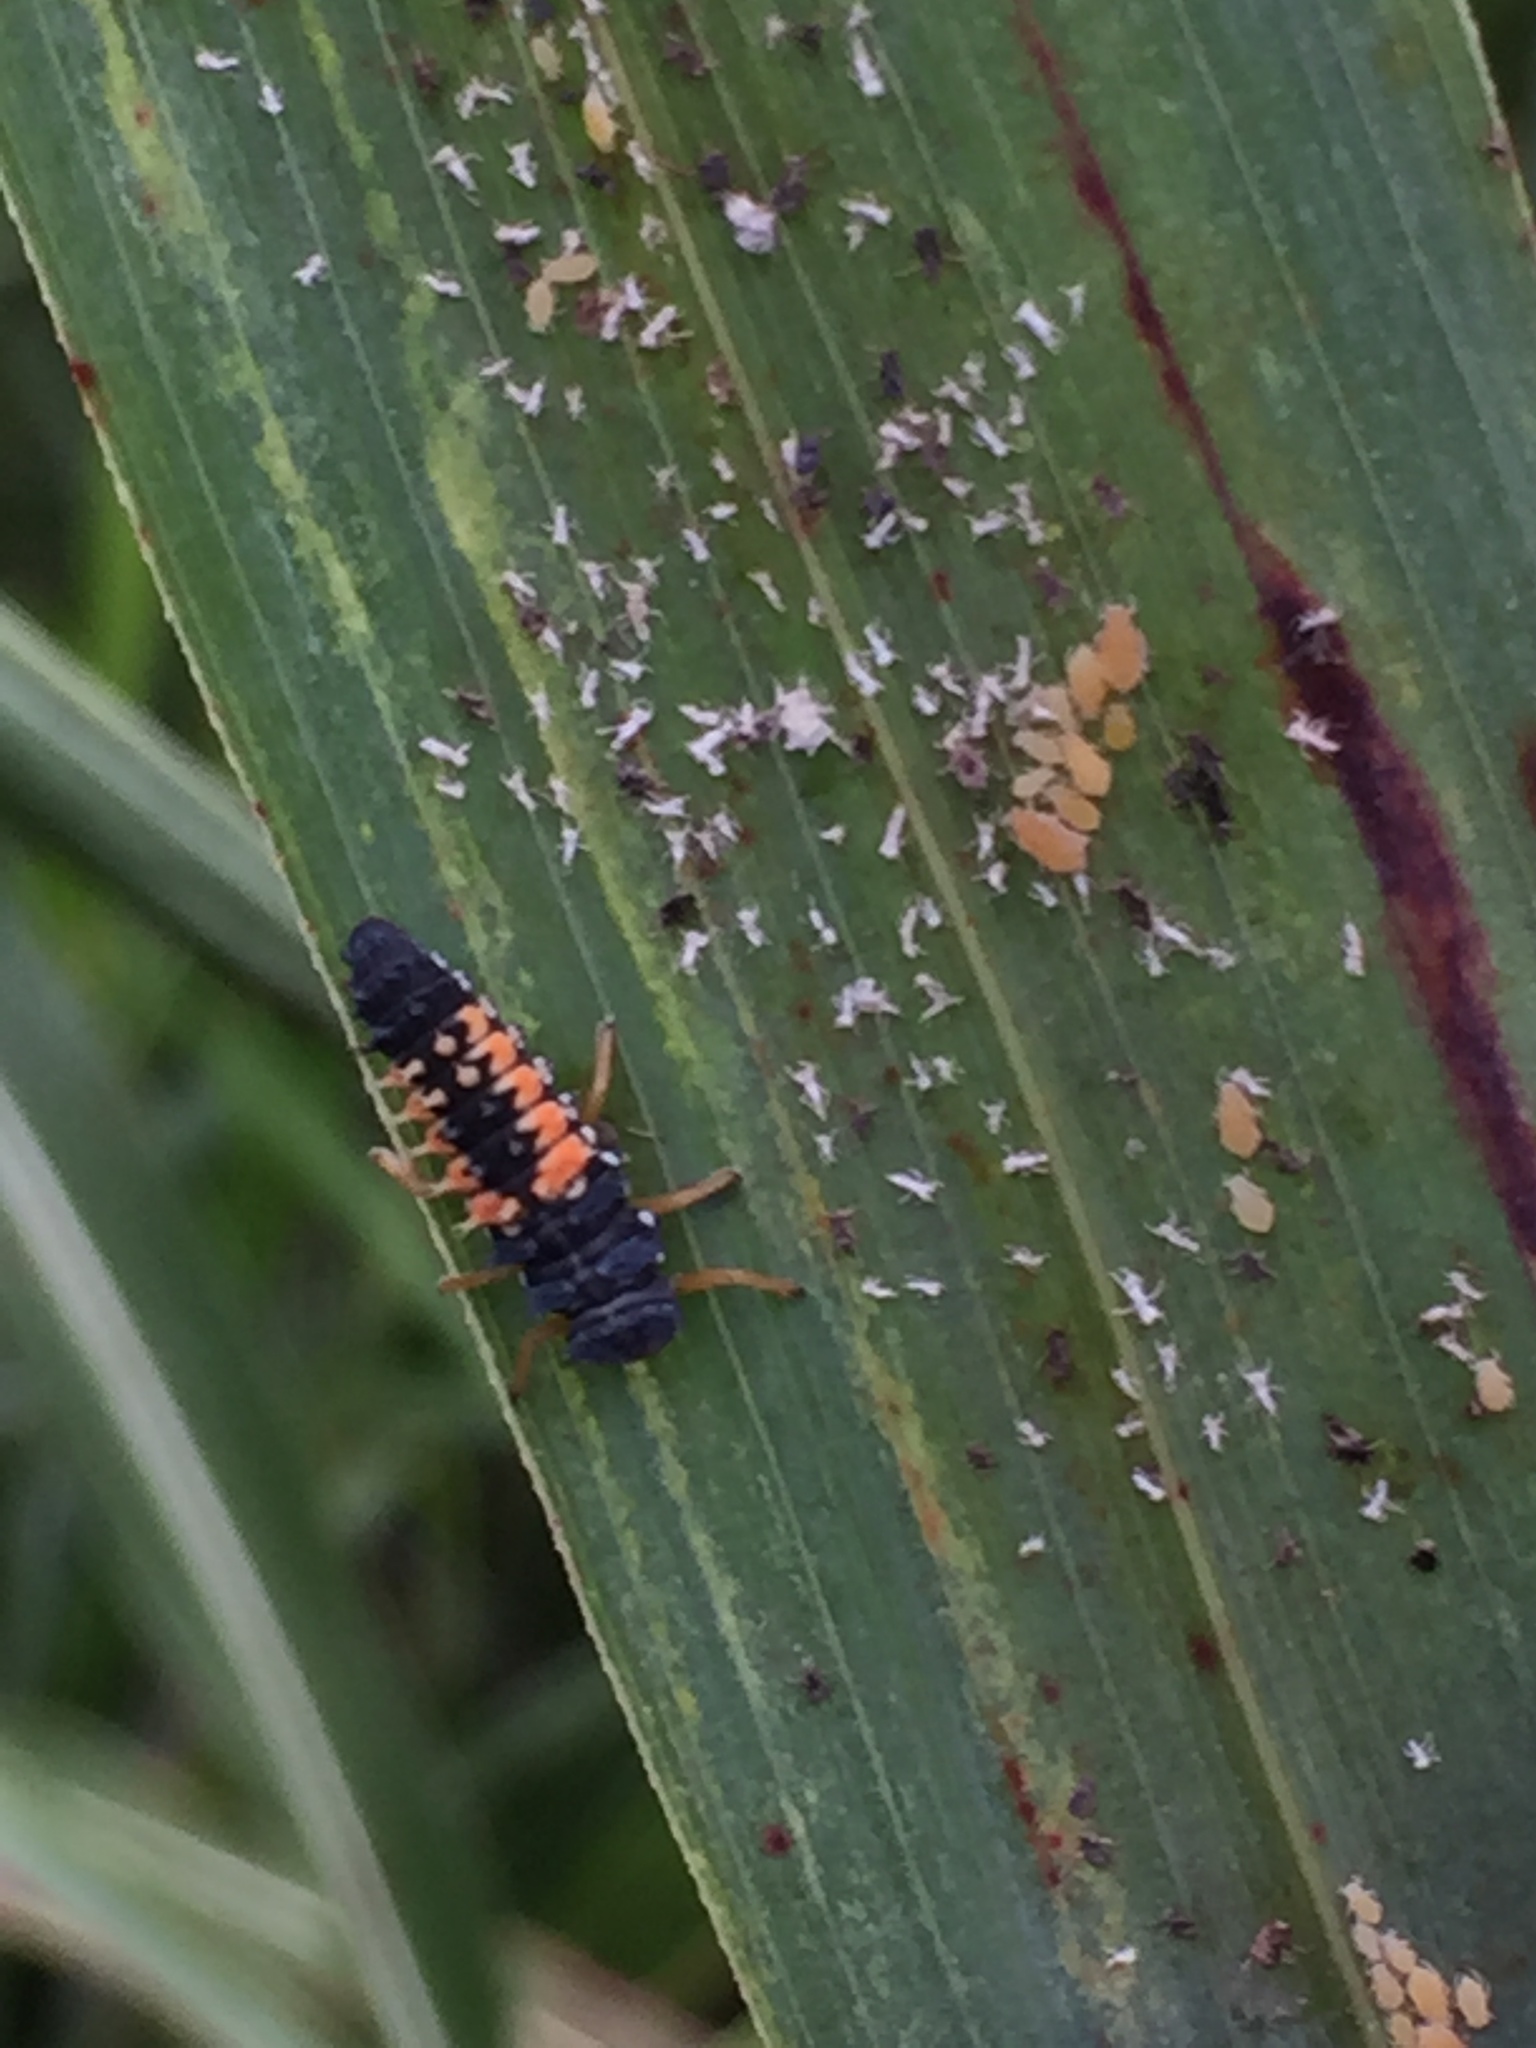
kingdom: Animalia
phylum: Arthropoda
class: Insecta
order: Coleoptera
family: Coccinellidae
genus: Harmonia
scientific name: Harmonia axyridis
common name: Harlequin ladybird
